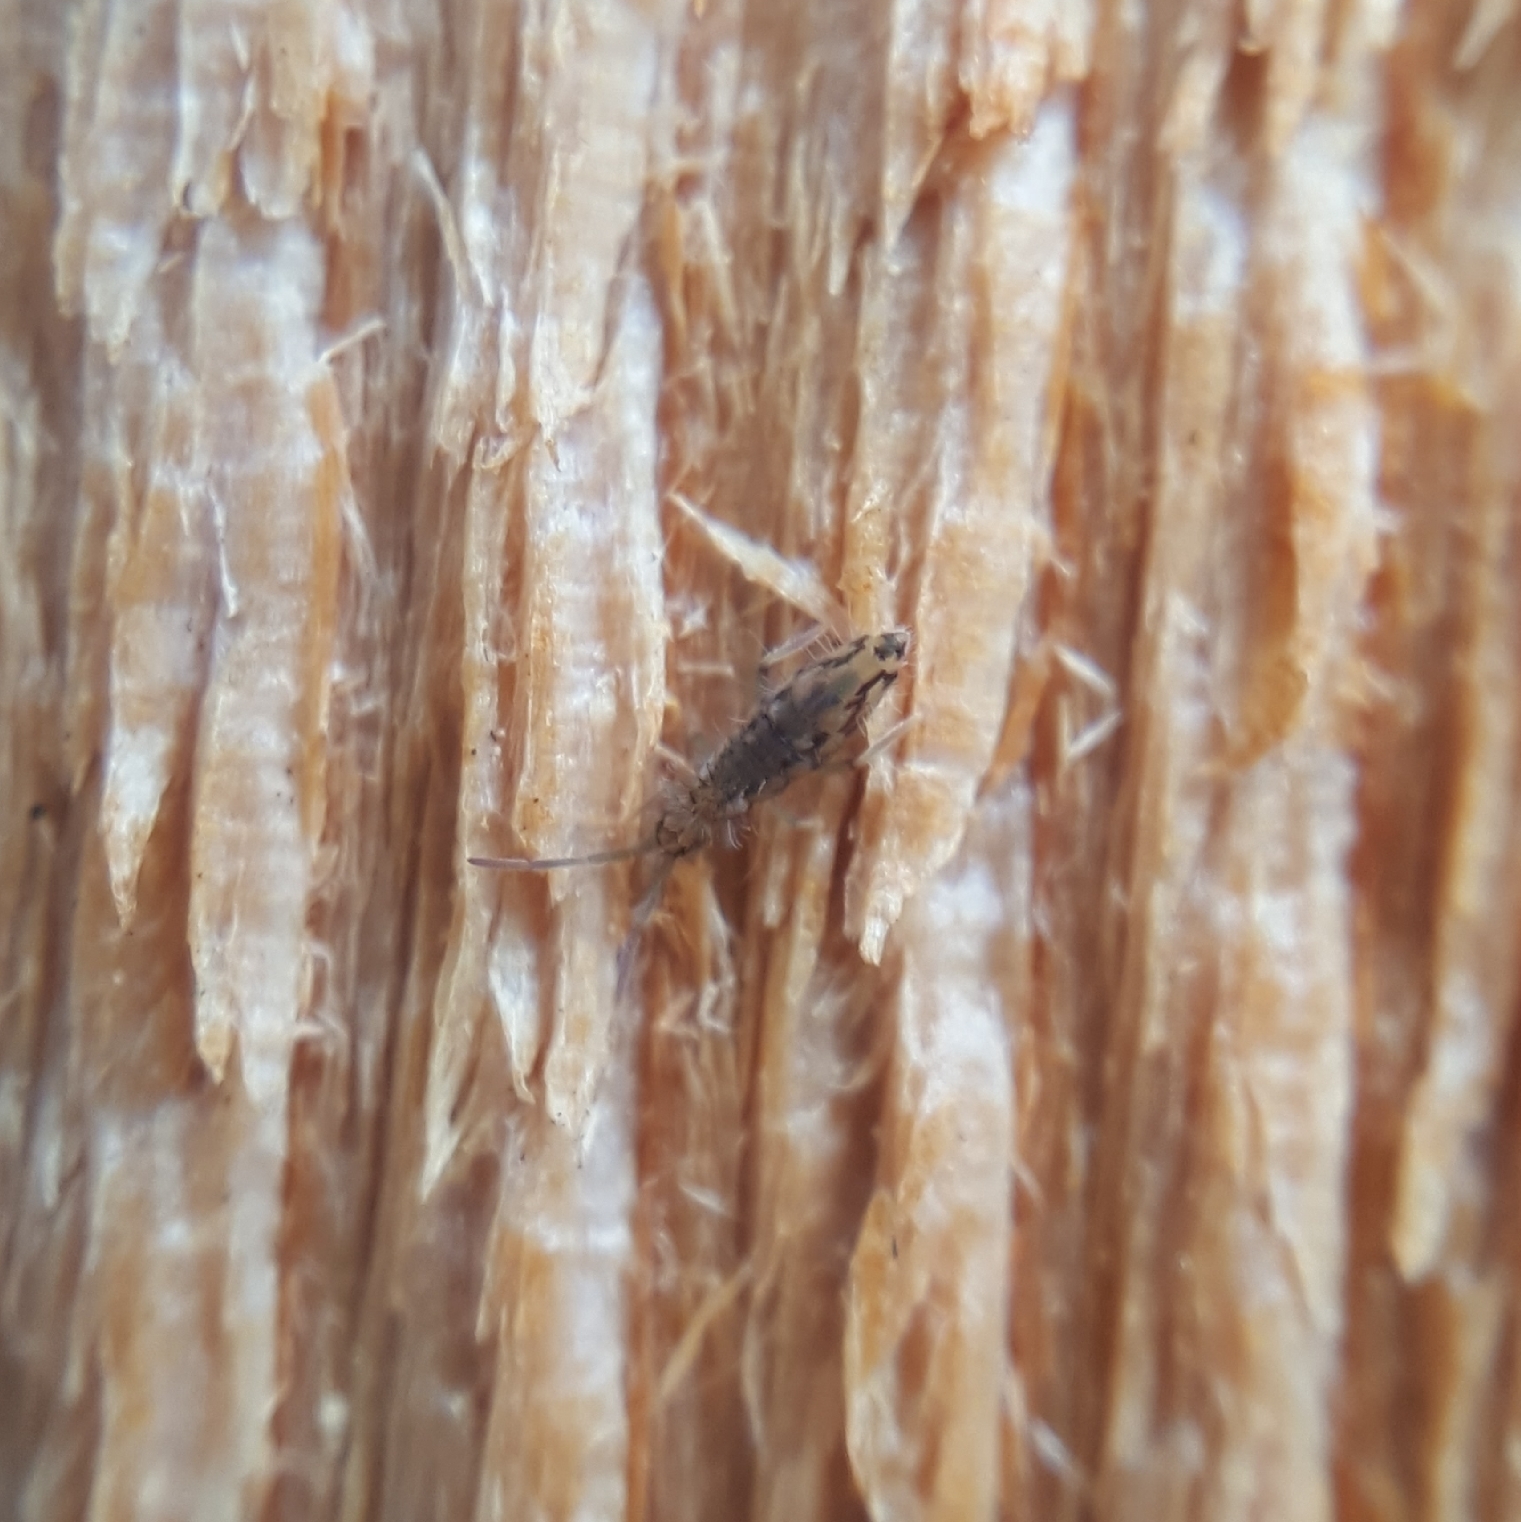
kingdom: Animalia
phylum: Arthropoda
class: Collembola
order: Entomobryomorpha
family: Entomobryidae
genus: Entomobrya
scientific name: Entomobrya katzi
